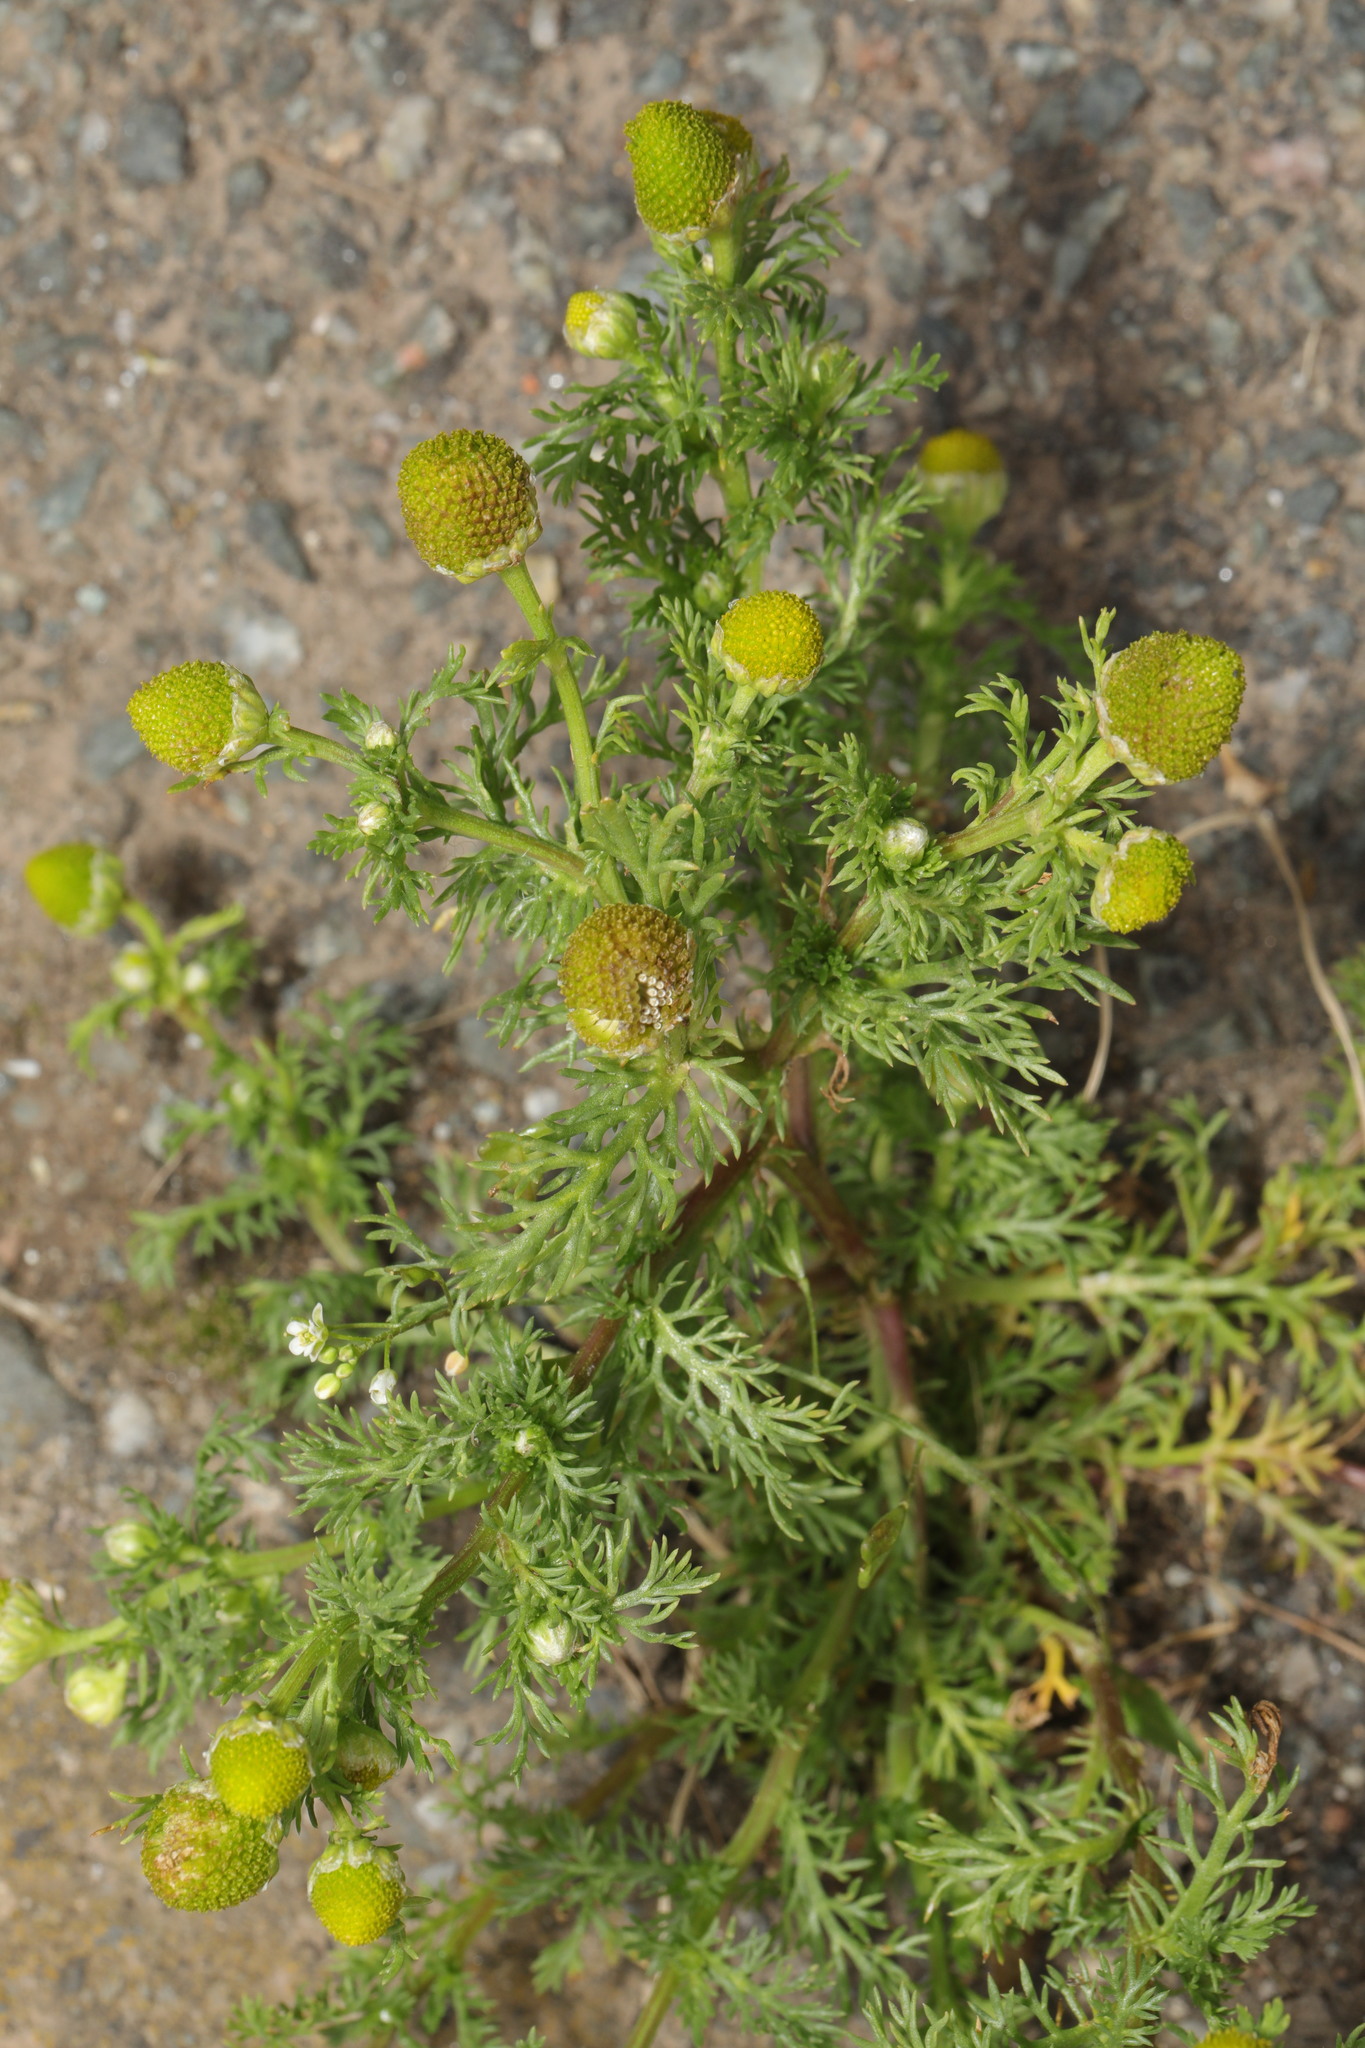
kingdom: Plantae
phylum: Tracheophyta
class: Magnoliopsida
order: Asterales
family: Asteraceae
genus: Matricaria
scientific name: Matricaria discoidea
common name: Disc mayweed
